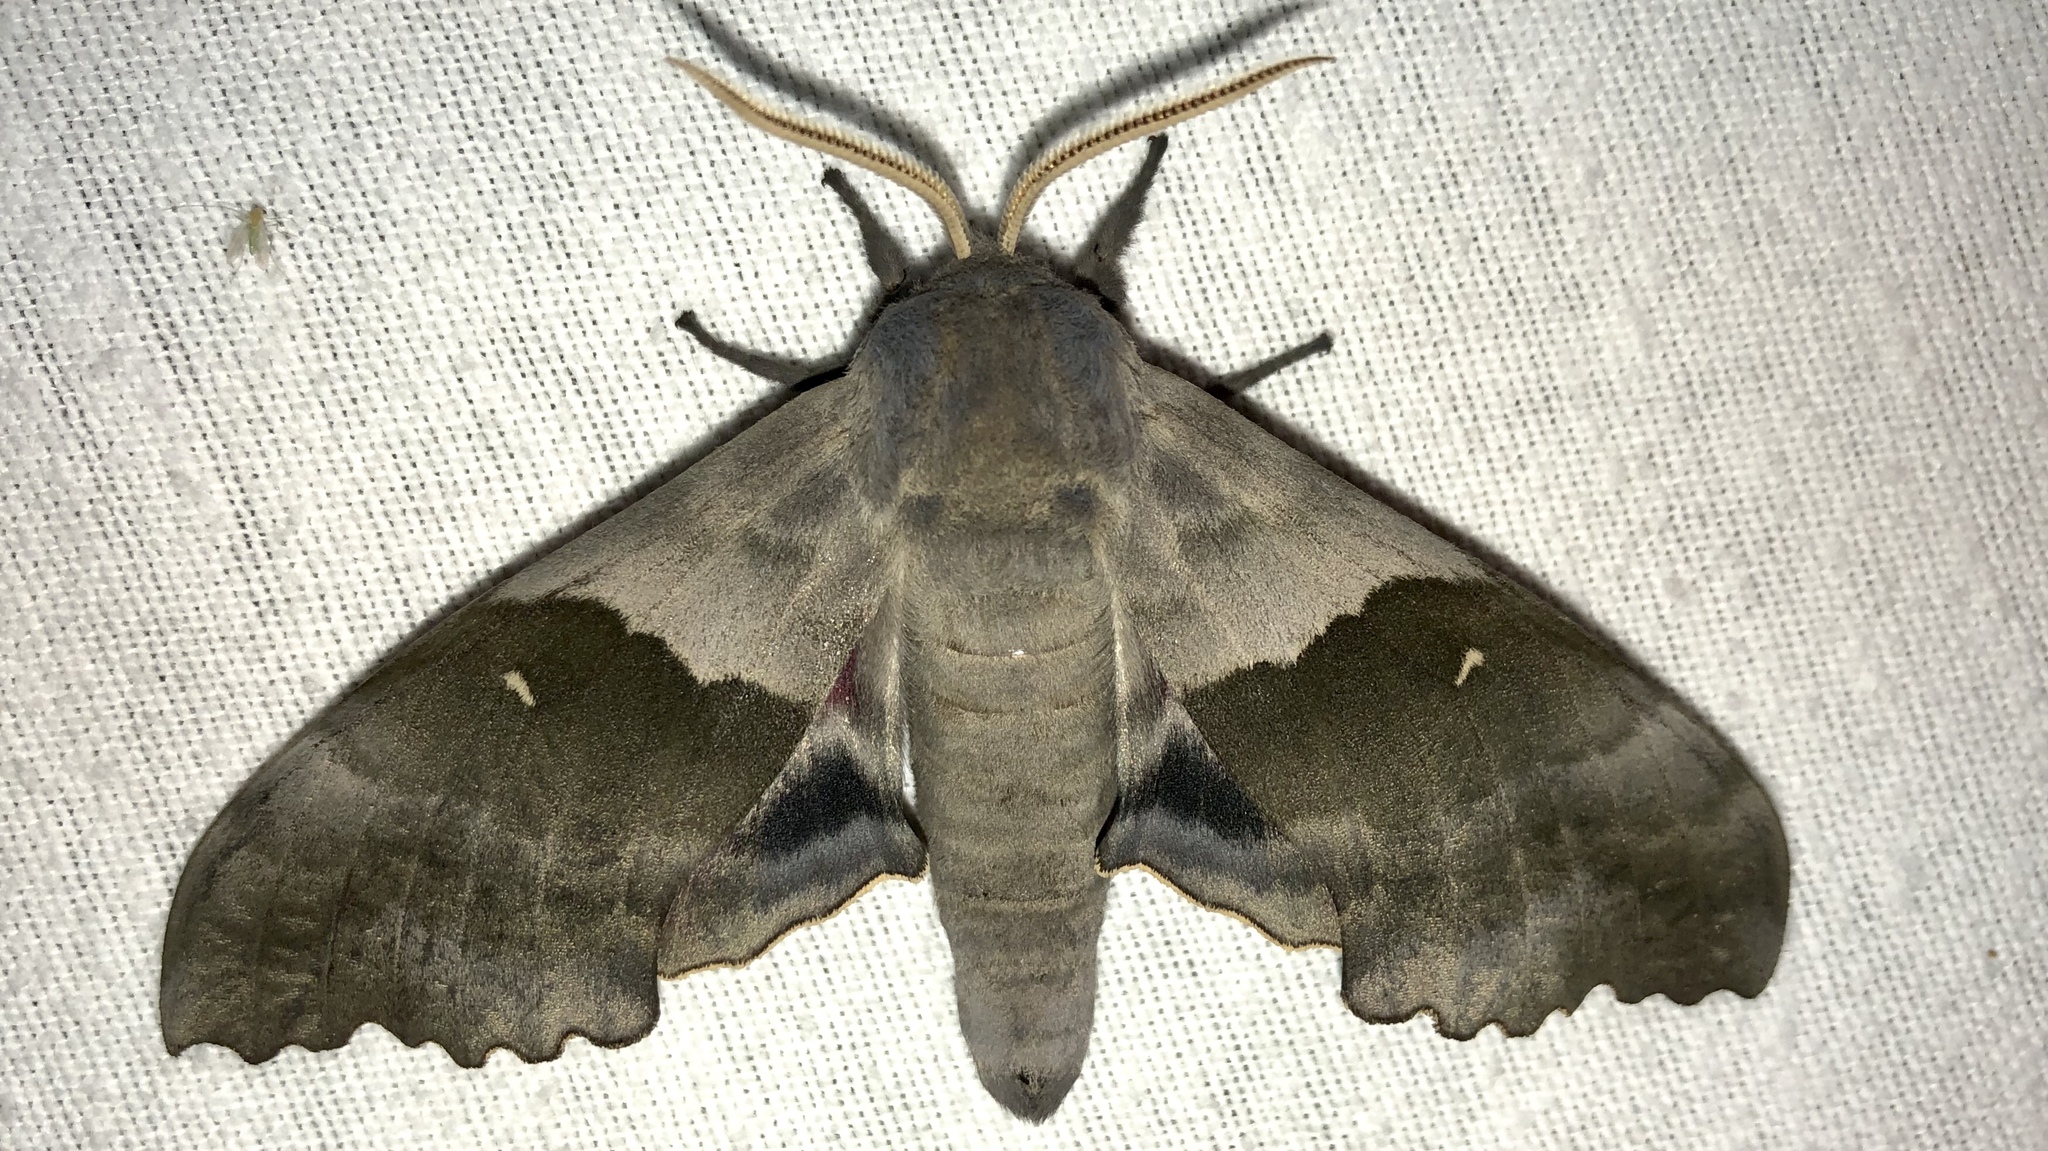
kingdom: Animalia
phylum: Arthropoda
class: Insecta
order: Lepidoptera
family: Sphingidae
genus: Pachysphinx
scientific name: Pachysphinx modesta
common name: Big poplar sphinx
